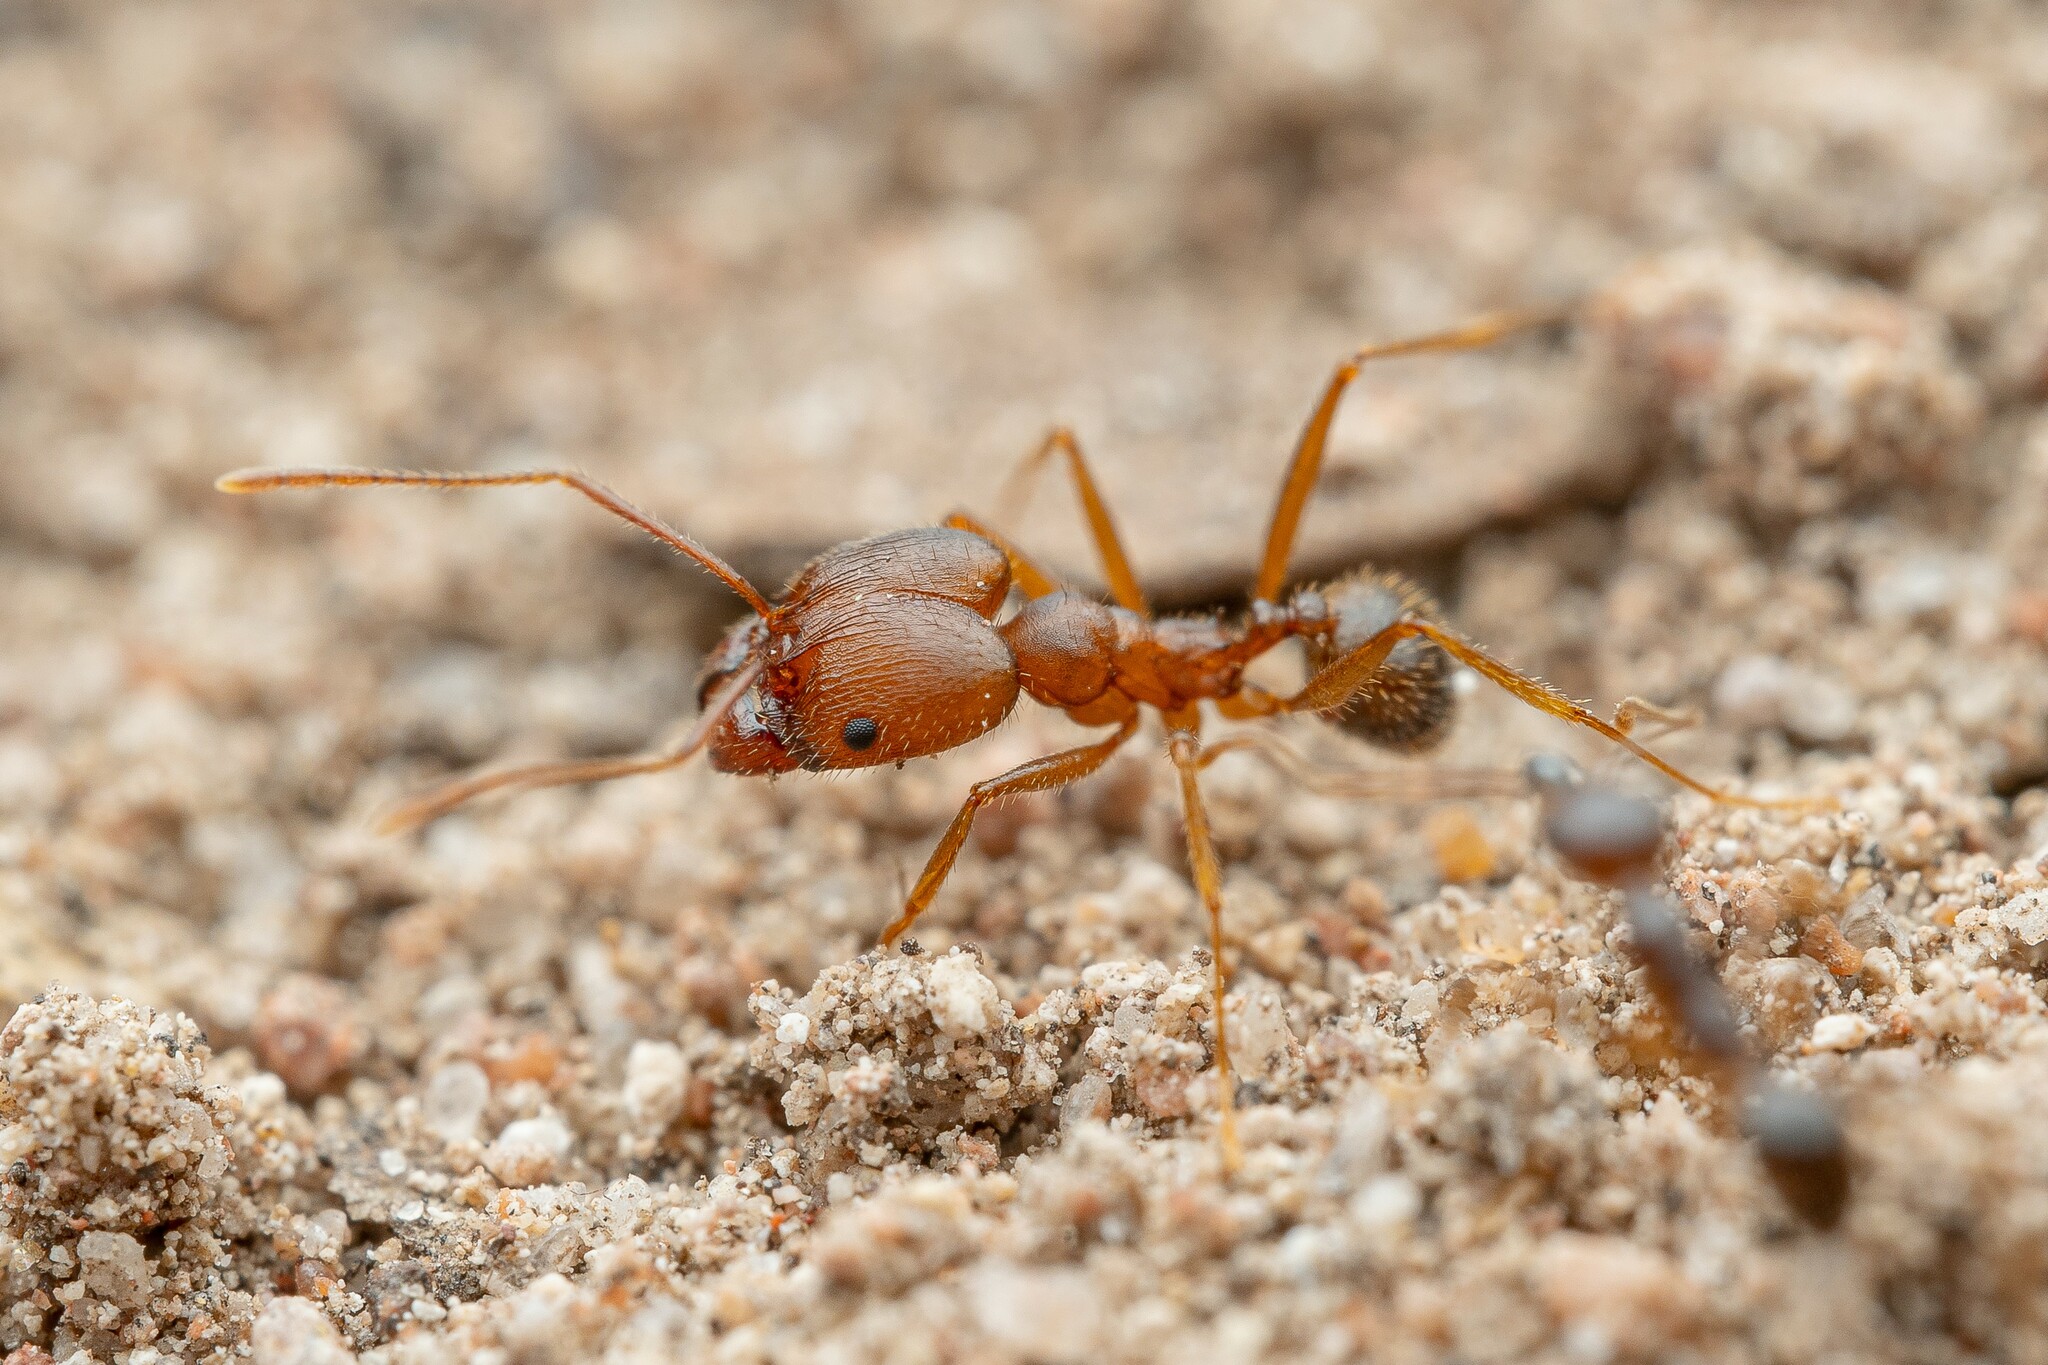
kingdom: Animalia
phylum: Arthropoda
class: Insecta
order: Hymenoptera
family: Formicidae
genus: Pheidole
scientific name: Pheidole portalensis
